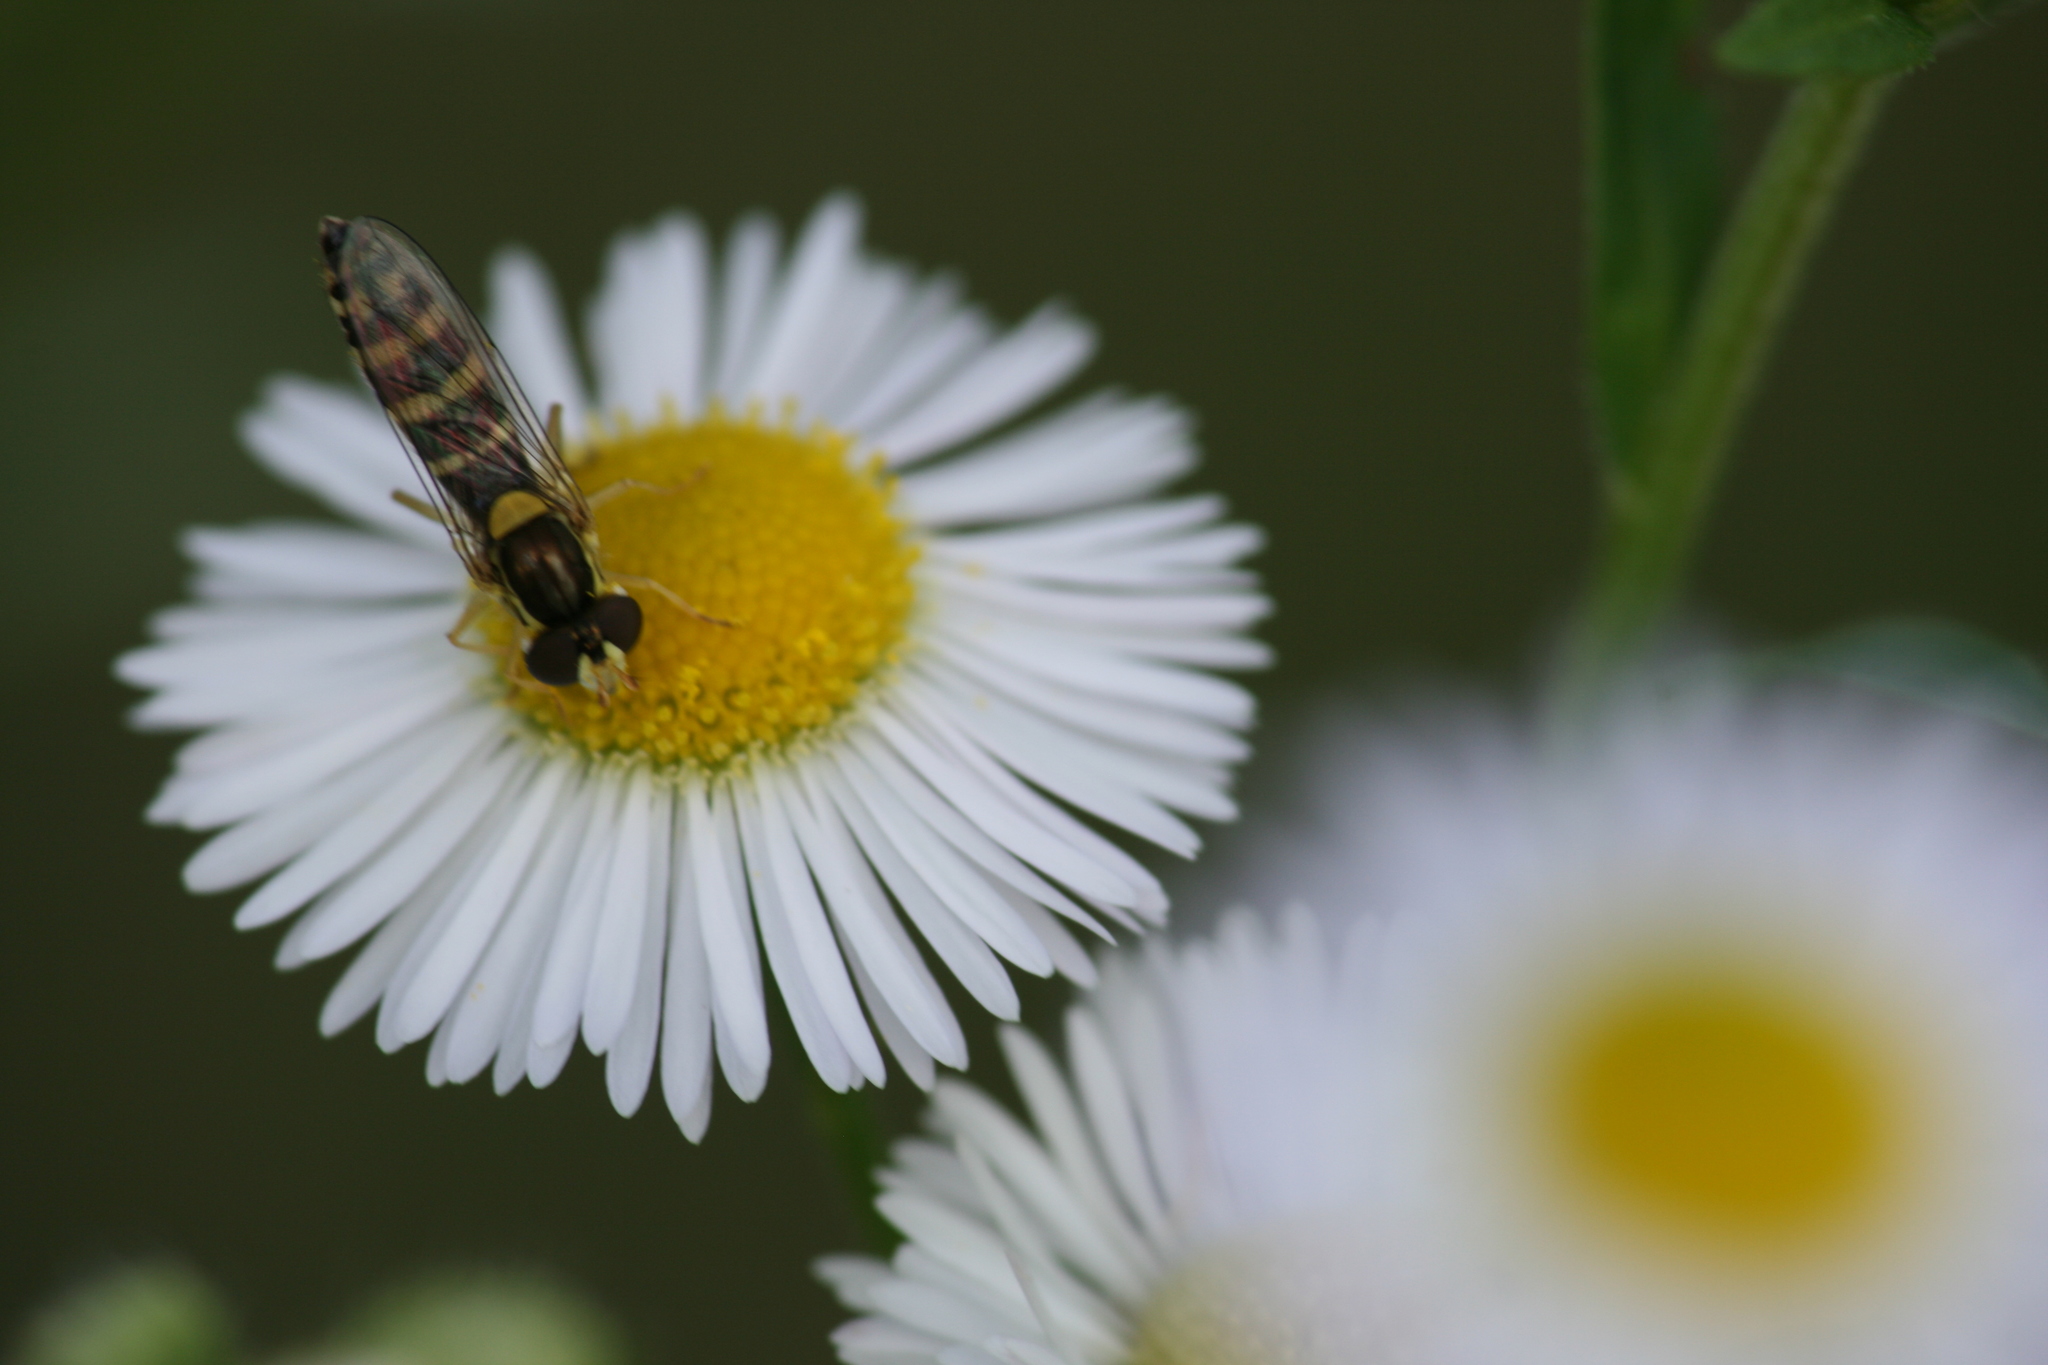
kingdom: Animalia
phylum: Arthropoda
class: Insecta
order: Diptera
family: Syrphidae
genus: Sphaerophoria
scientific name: Sphaerophoria
